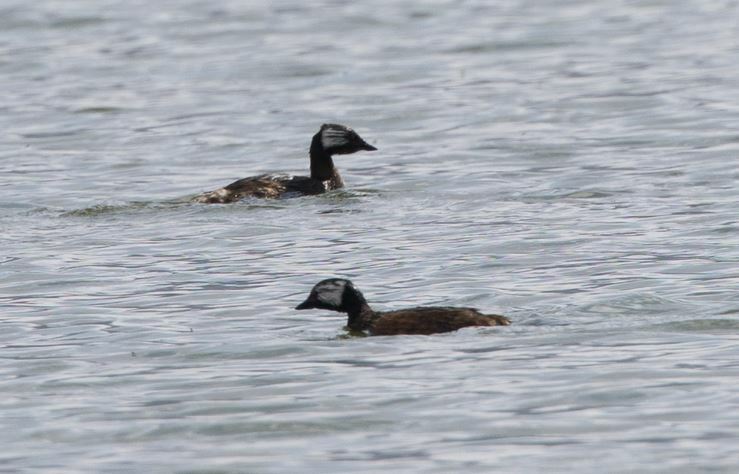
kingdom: Animalia
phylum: Chordata
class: Aves
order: Podicipediformes
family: Podicipedidae
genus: Rollandia
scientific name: Rollandia rolland
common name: White-tufted grebe
